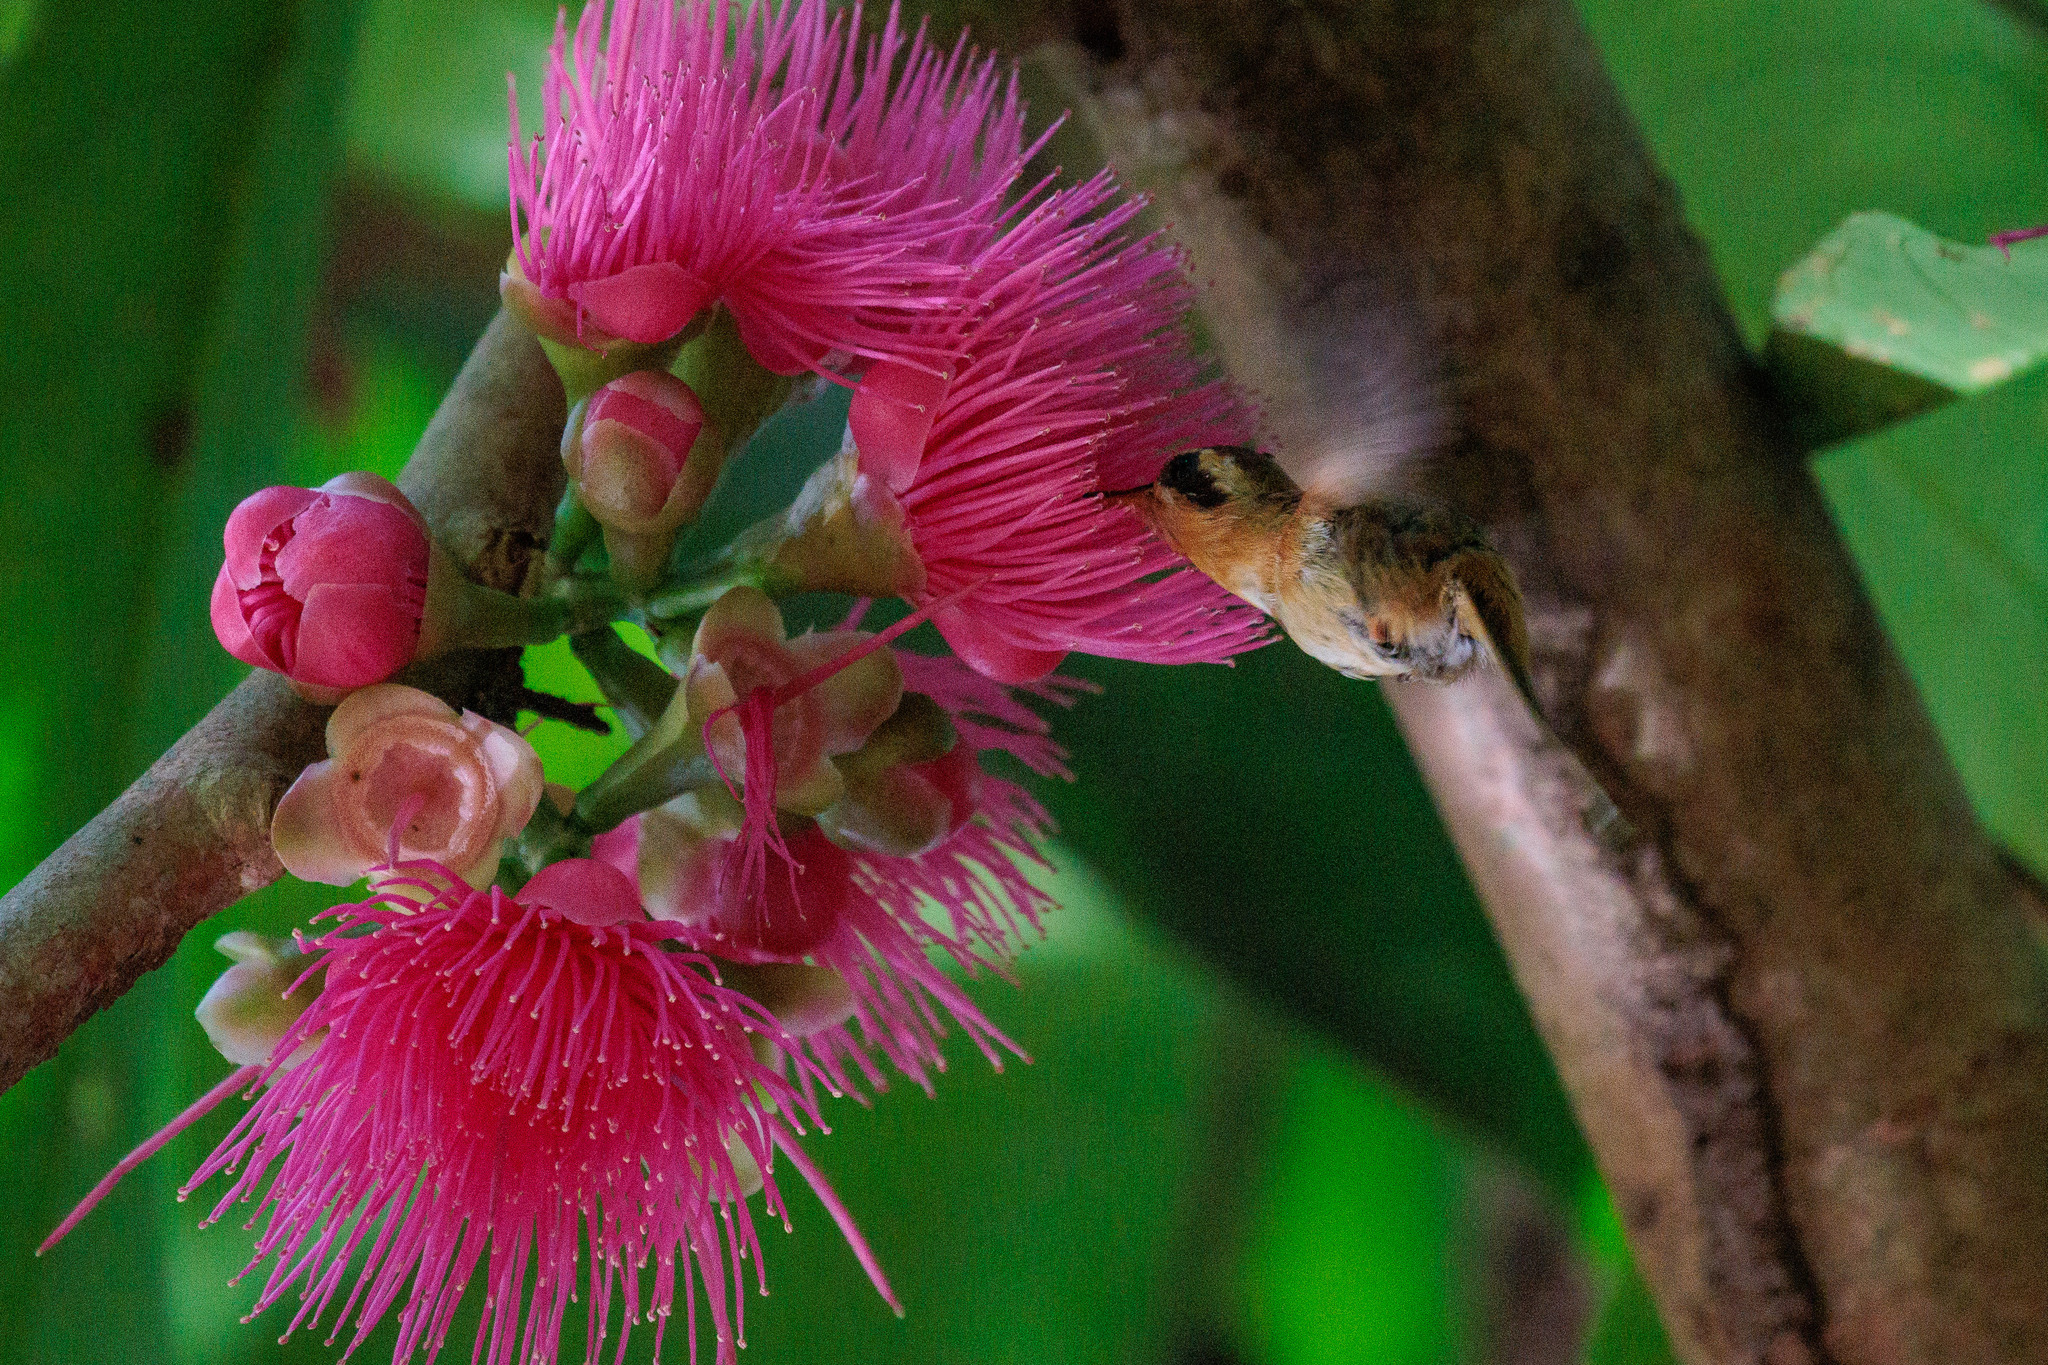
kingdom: Animalia
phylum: Chordata
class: Aves
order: Apodiformes
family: Trochilidae
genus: Phaethornis
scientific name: Phaethornis ruber
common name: Reddish hermit
